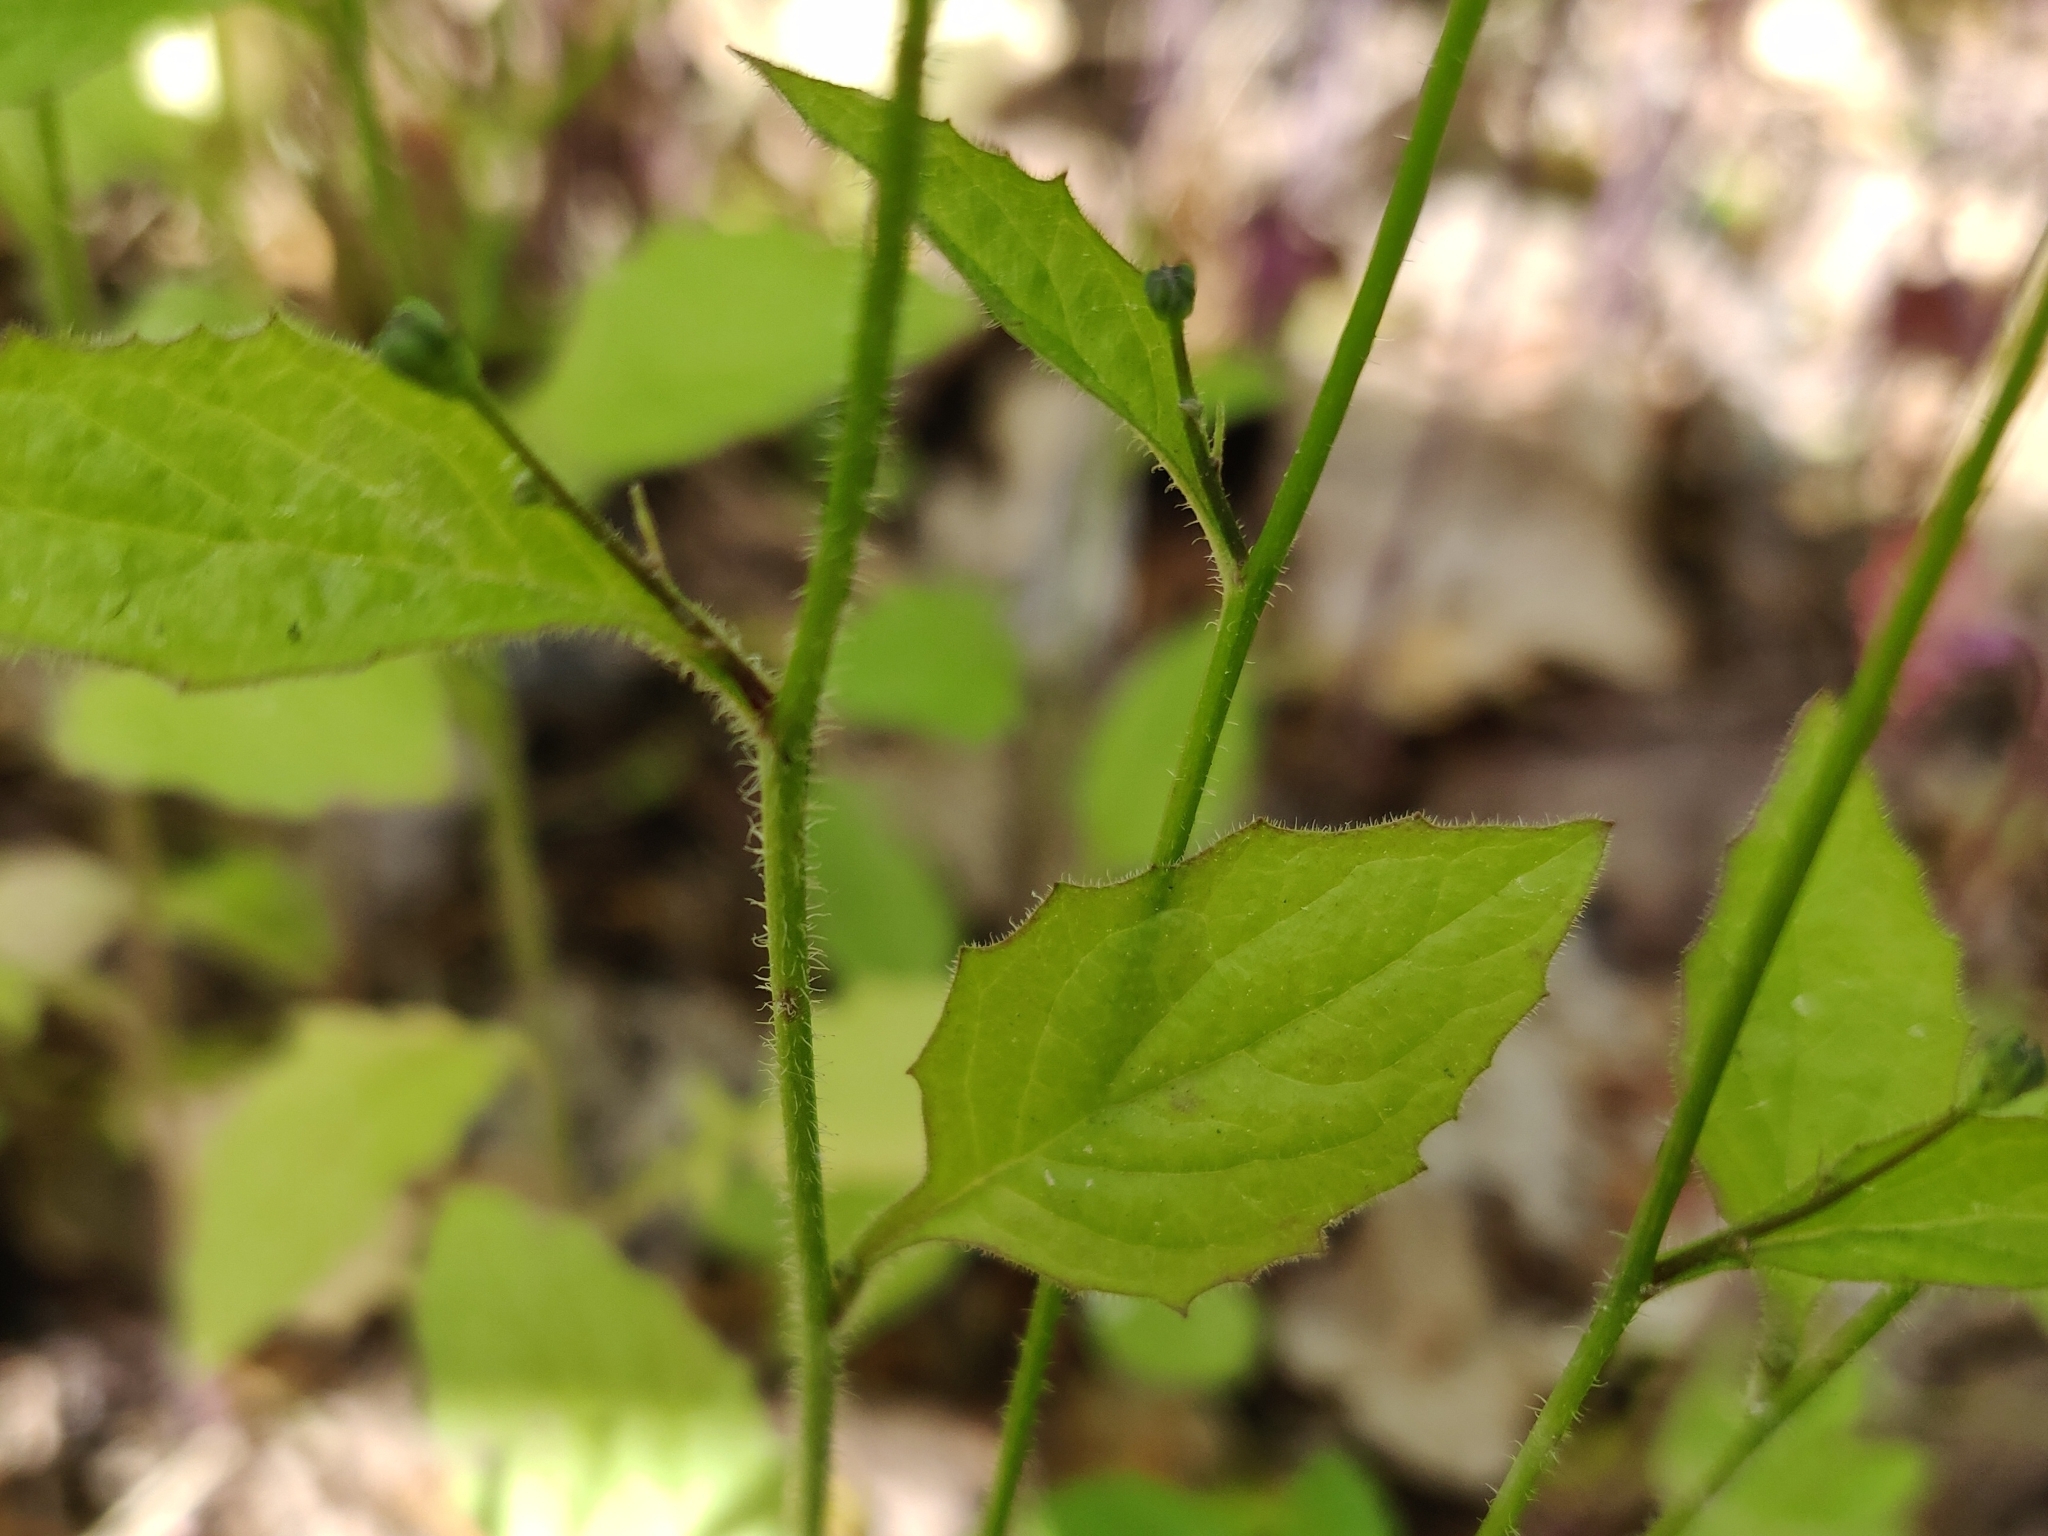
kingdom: Plantae
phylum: Tracheophyta
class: Magnoliopsida
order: Asterales
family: Asteraceae
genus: Lapsana
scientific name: Lapsana communis
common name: Nipplewort
